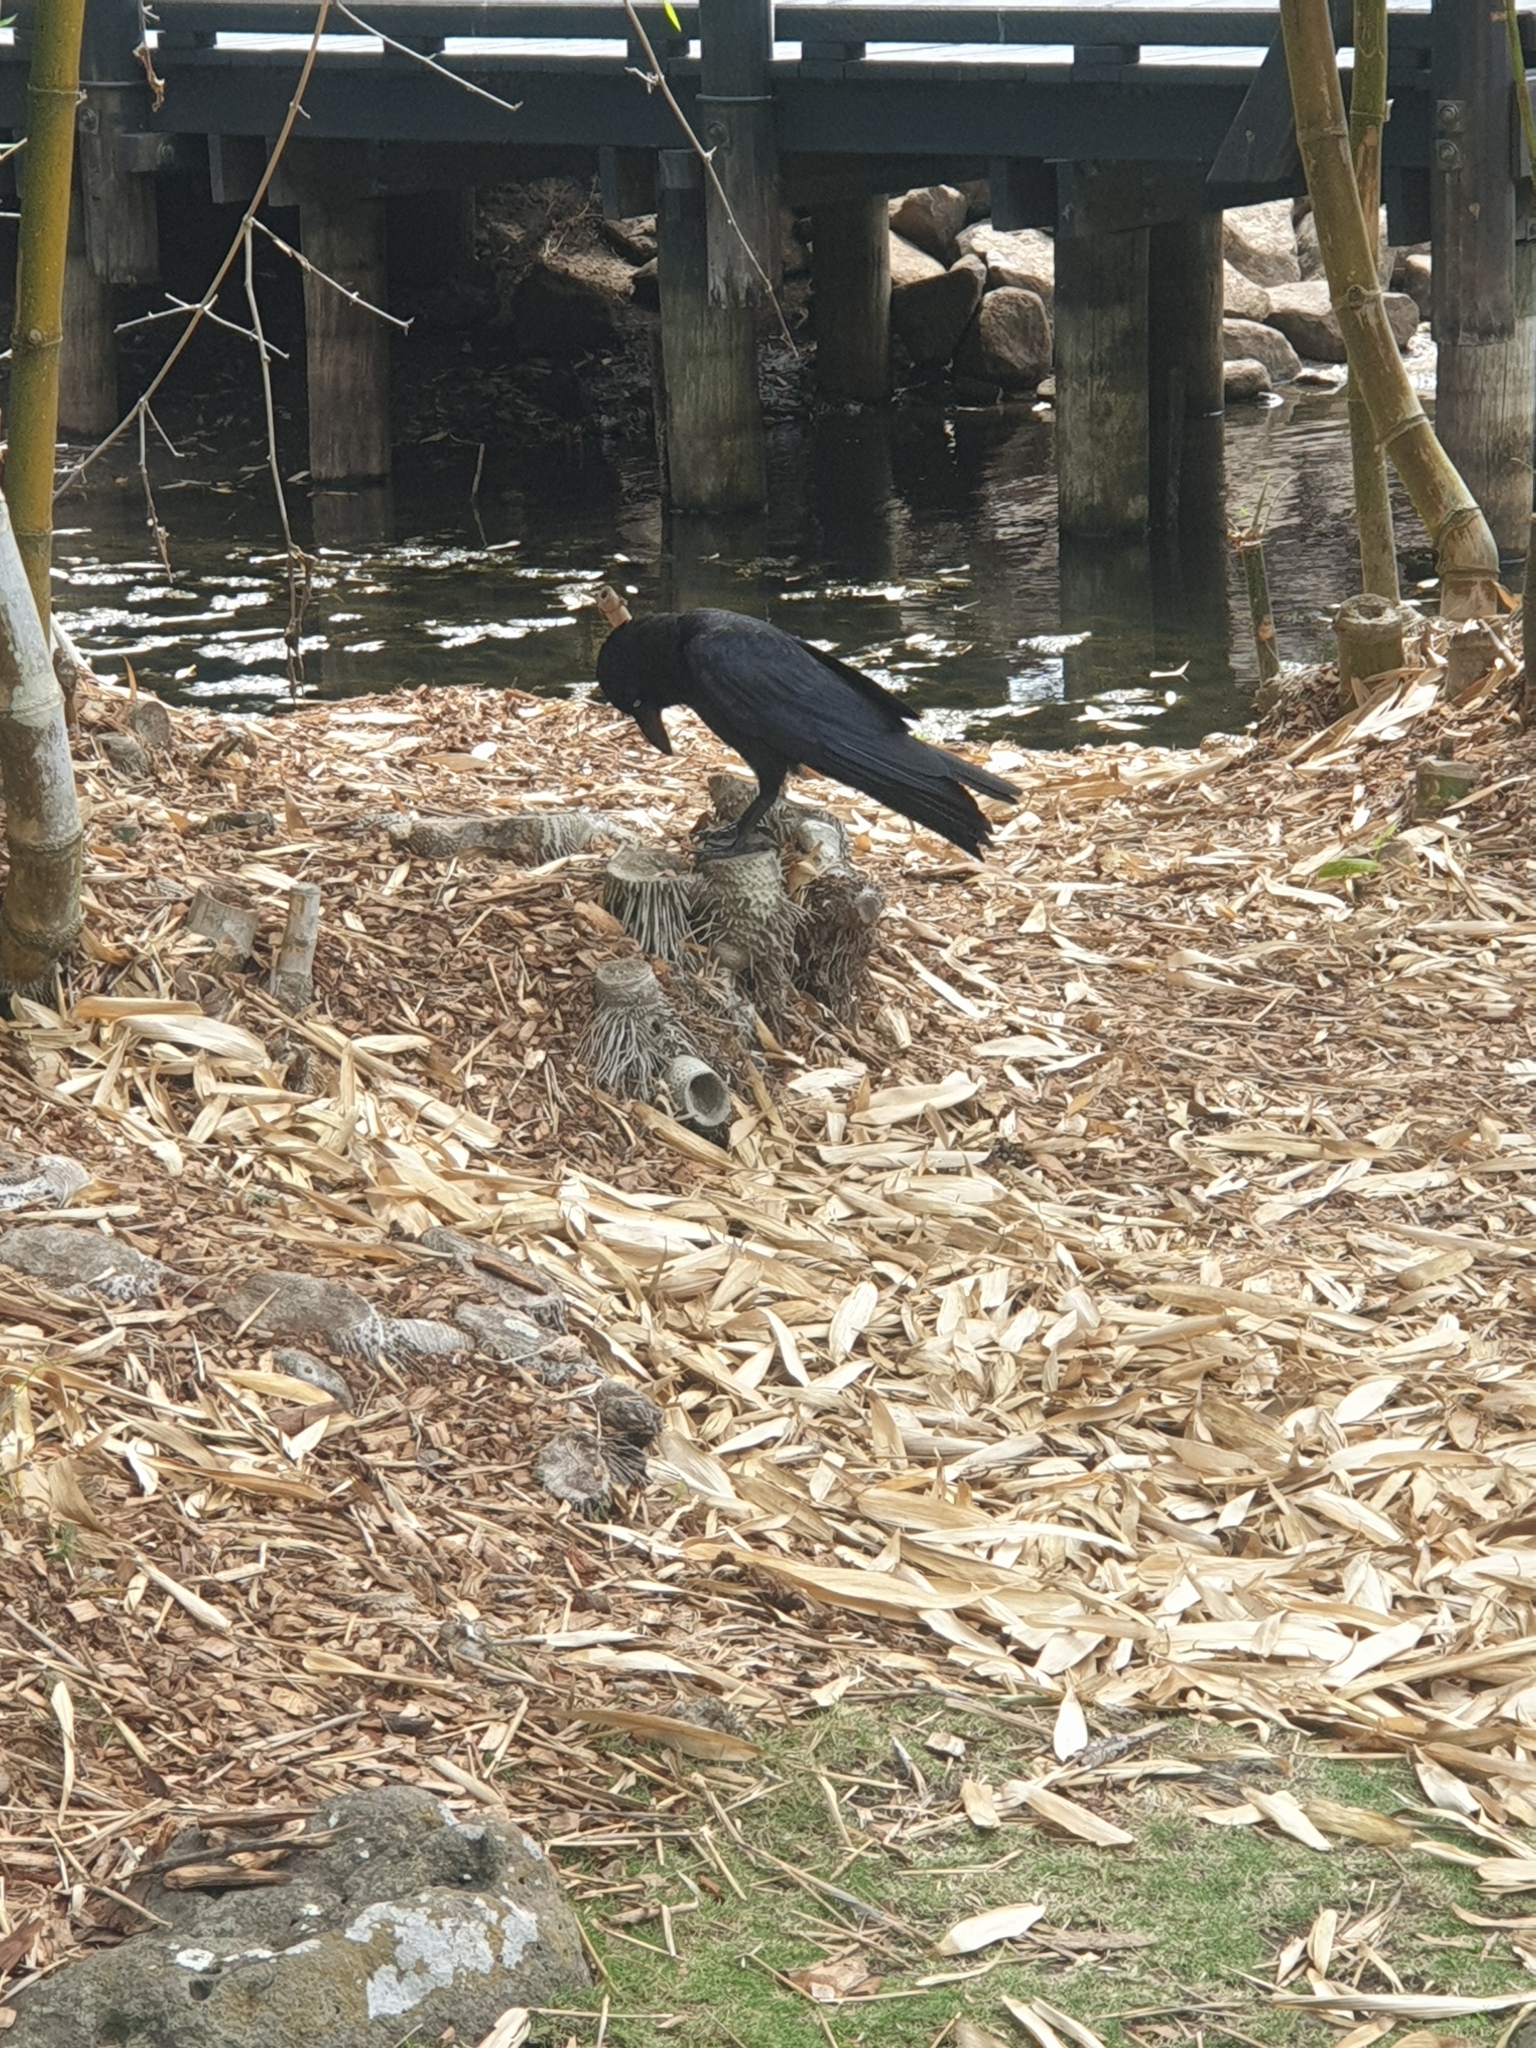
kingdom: Animalia
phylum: Chordata
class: Aves
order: Passeriformes
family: Corvidae
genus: Corvus
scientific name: Corvus orru
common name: Torresian crow
